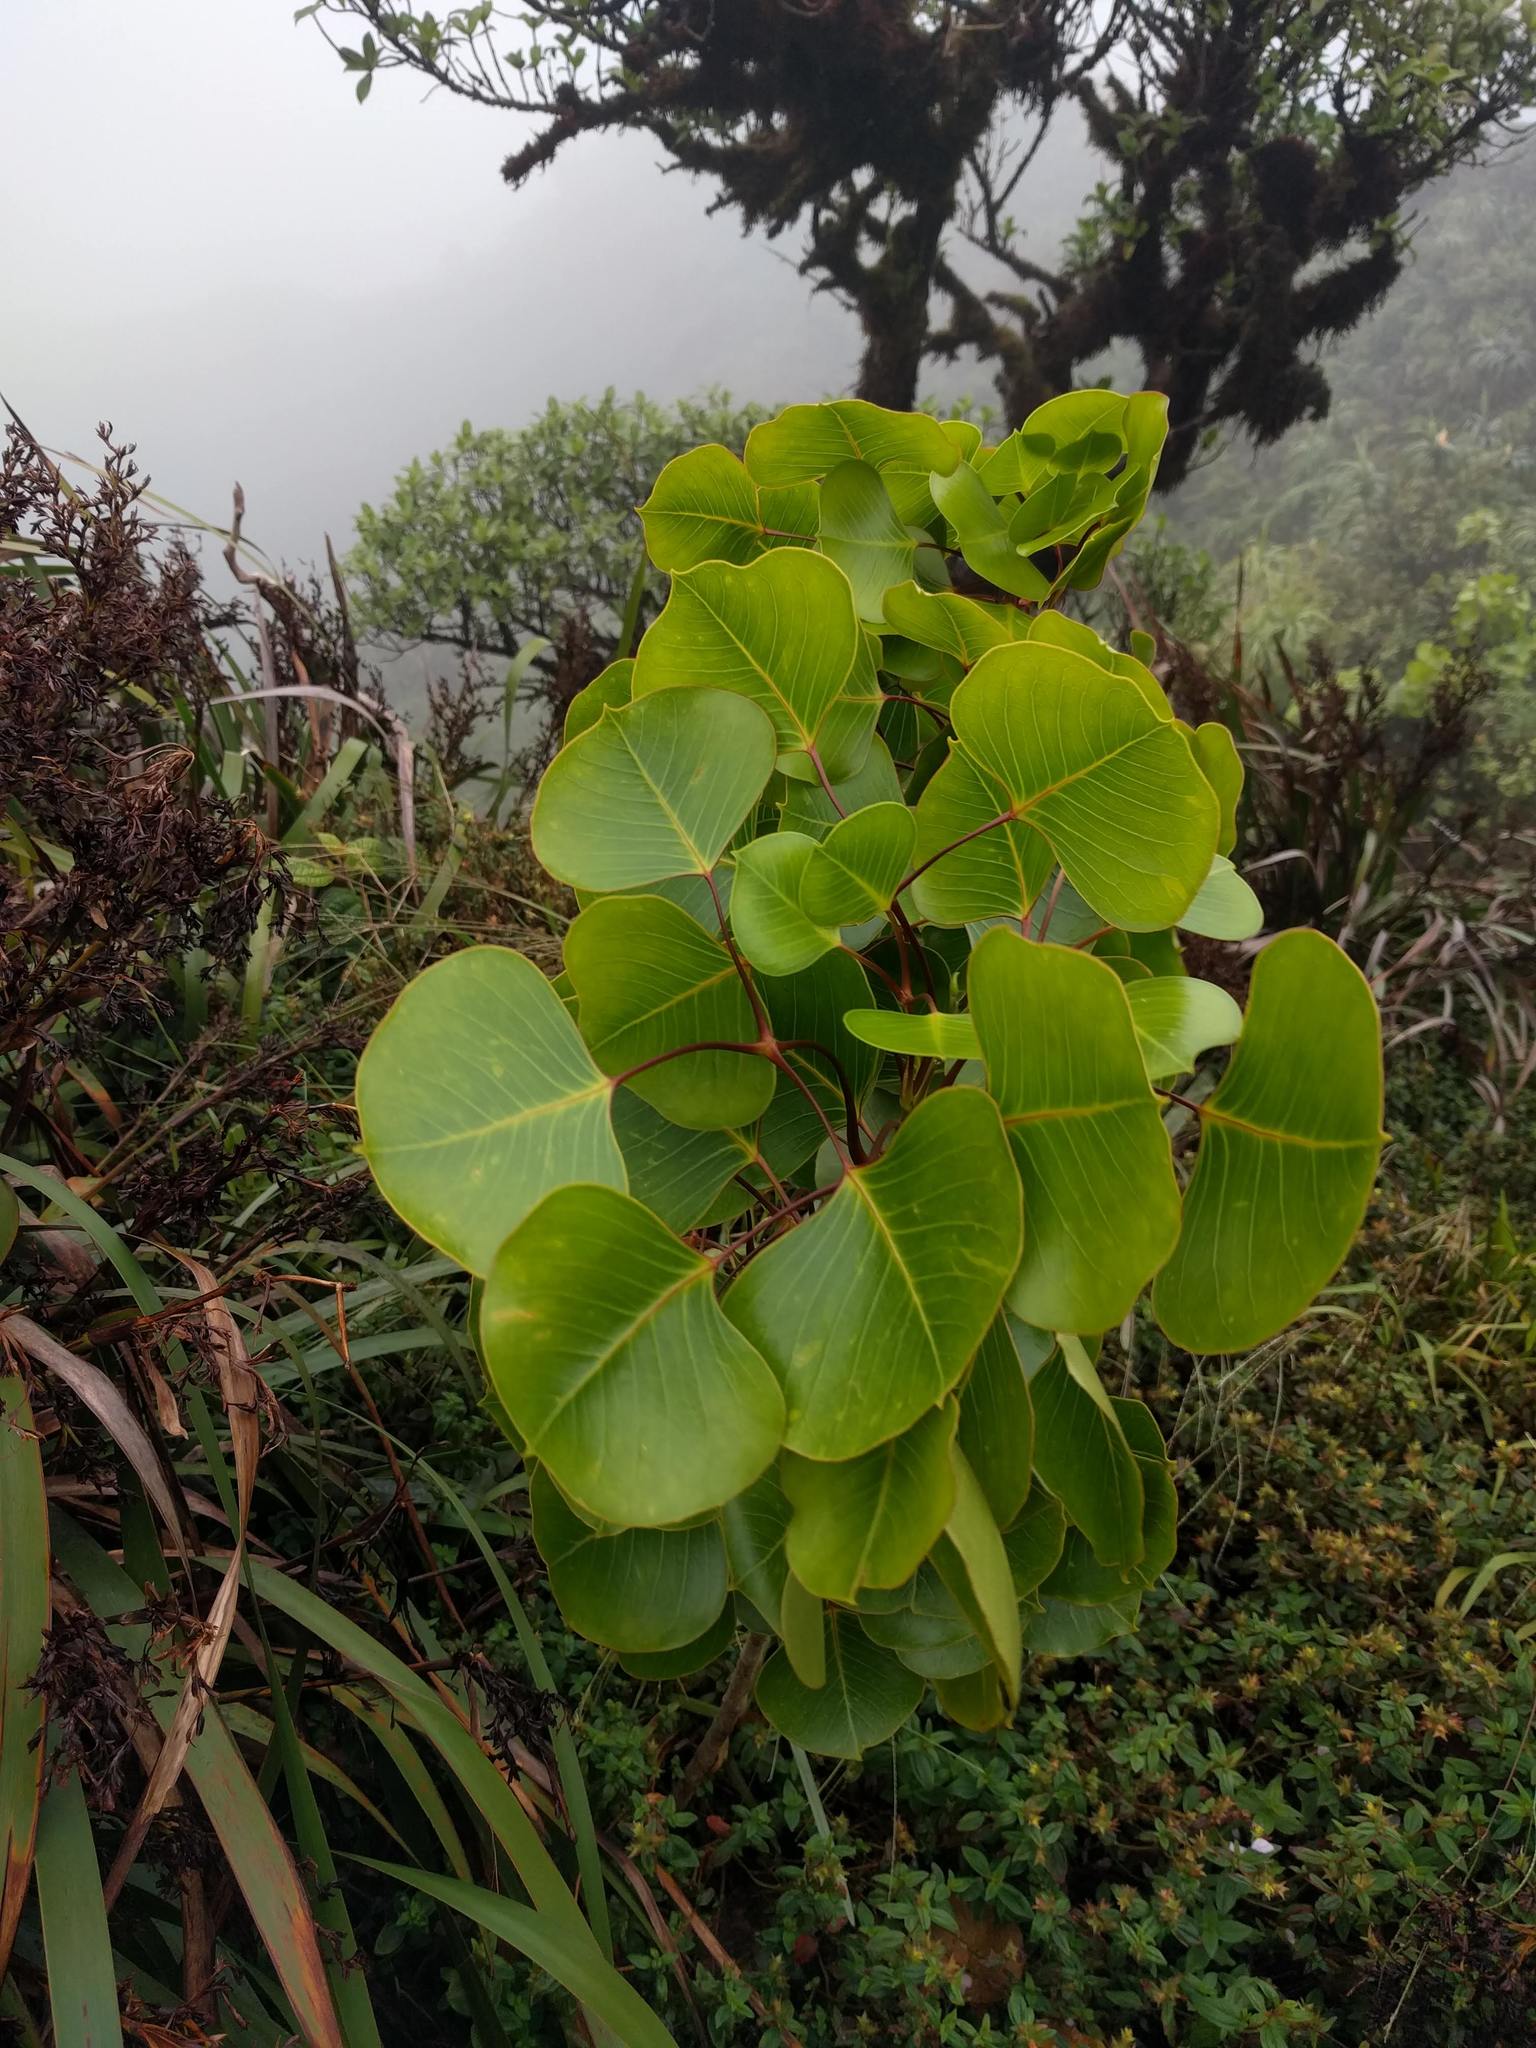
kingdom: Plantae
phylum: Tracheophyta
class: Magnoliopsida
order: Apiales
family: Araliaceae
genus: Cheirodendron
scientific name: Cheirodendron platyphyllum
